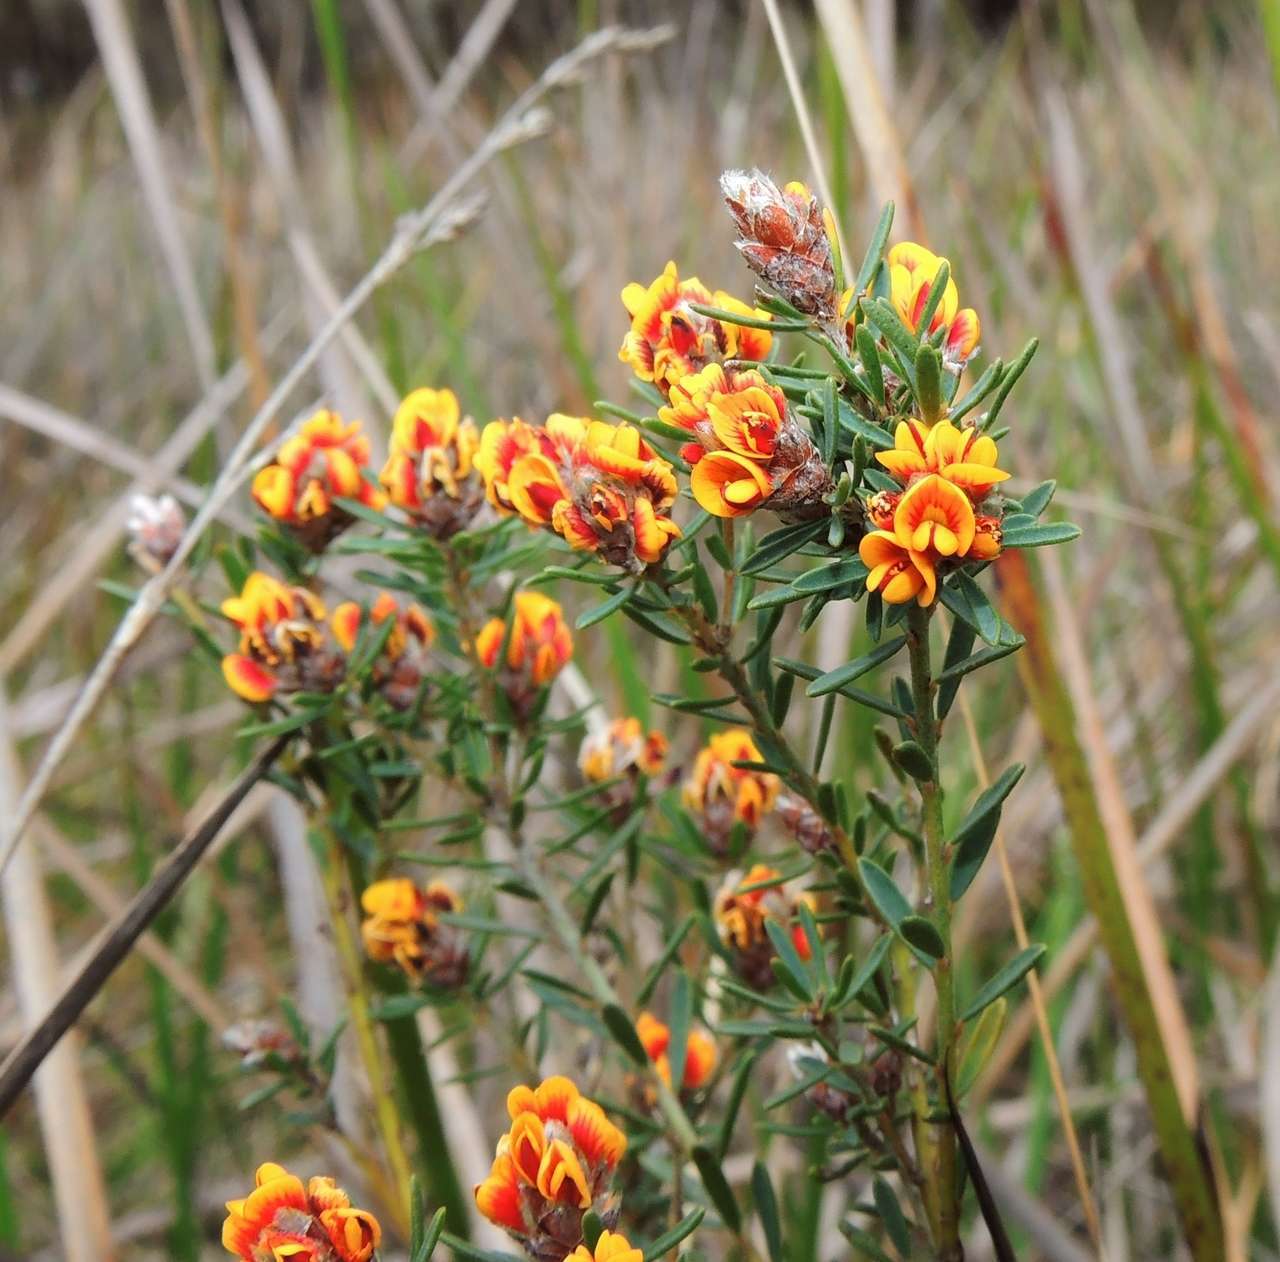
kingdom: Plantae
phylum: Tracheophyta
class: Magnoliopsida
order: Fabales
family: Fabaceae
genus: Pultenaea
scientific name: Pultenaea dentata
